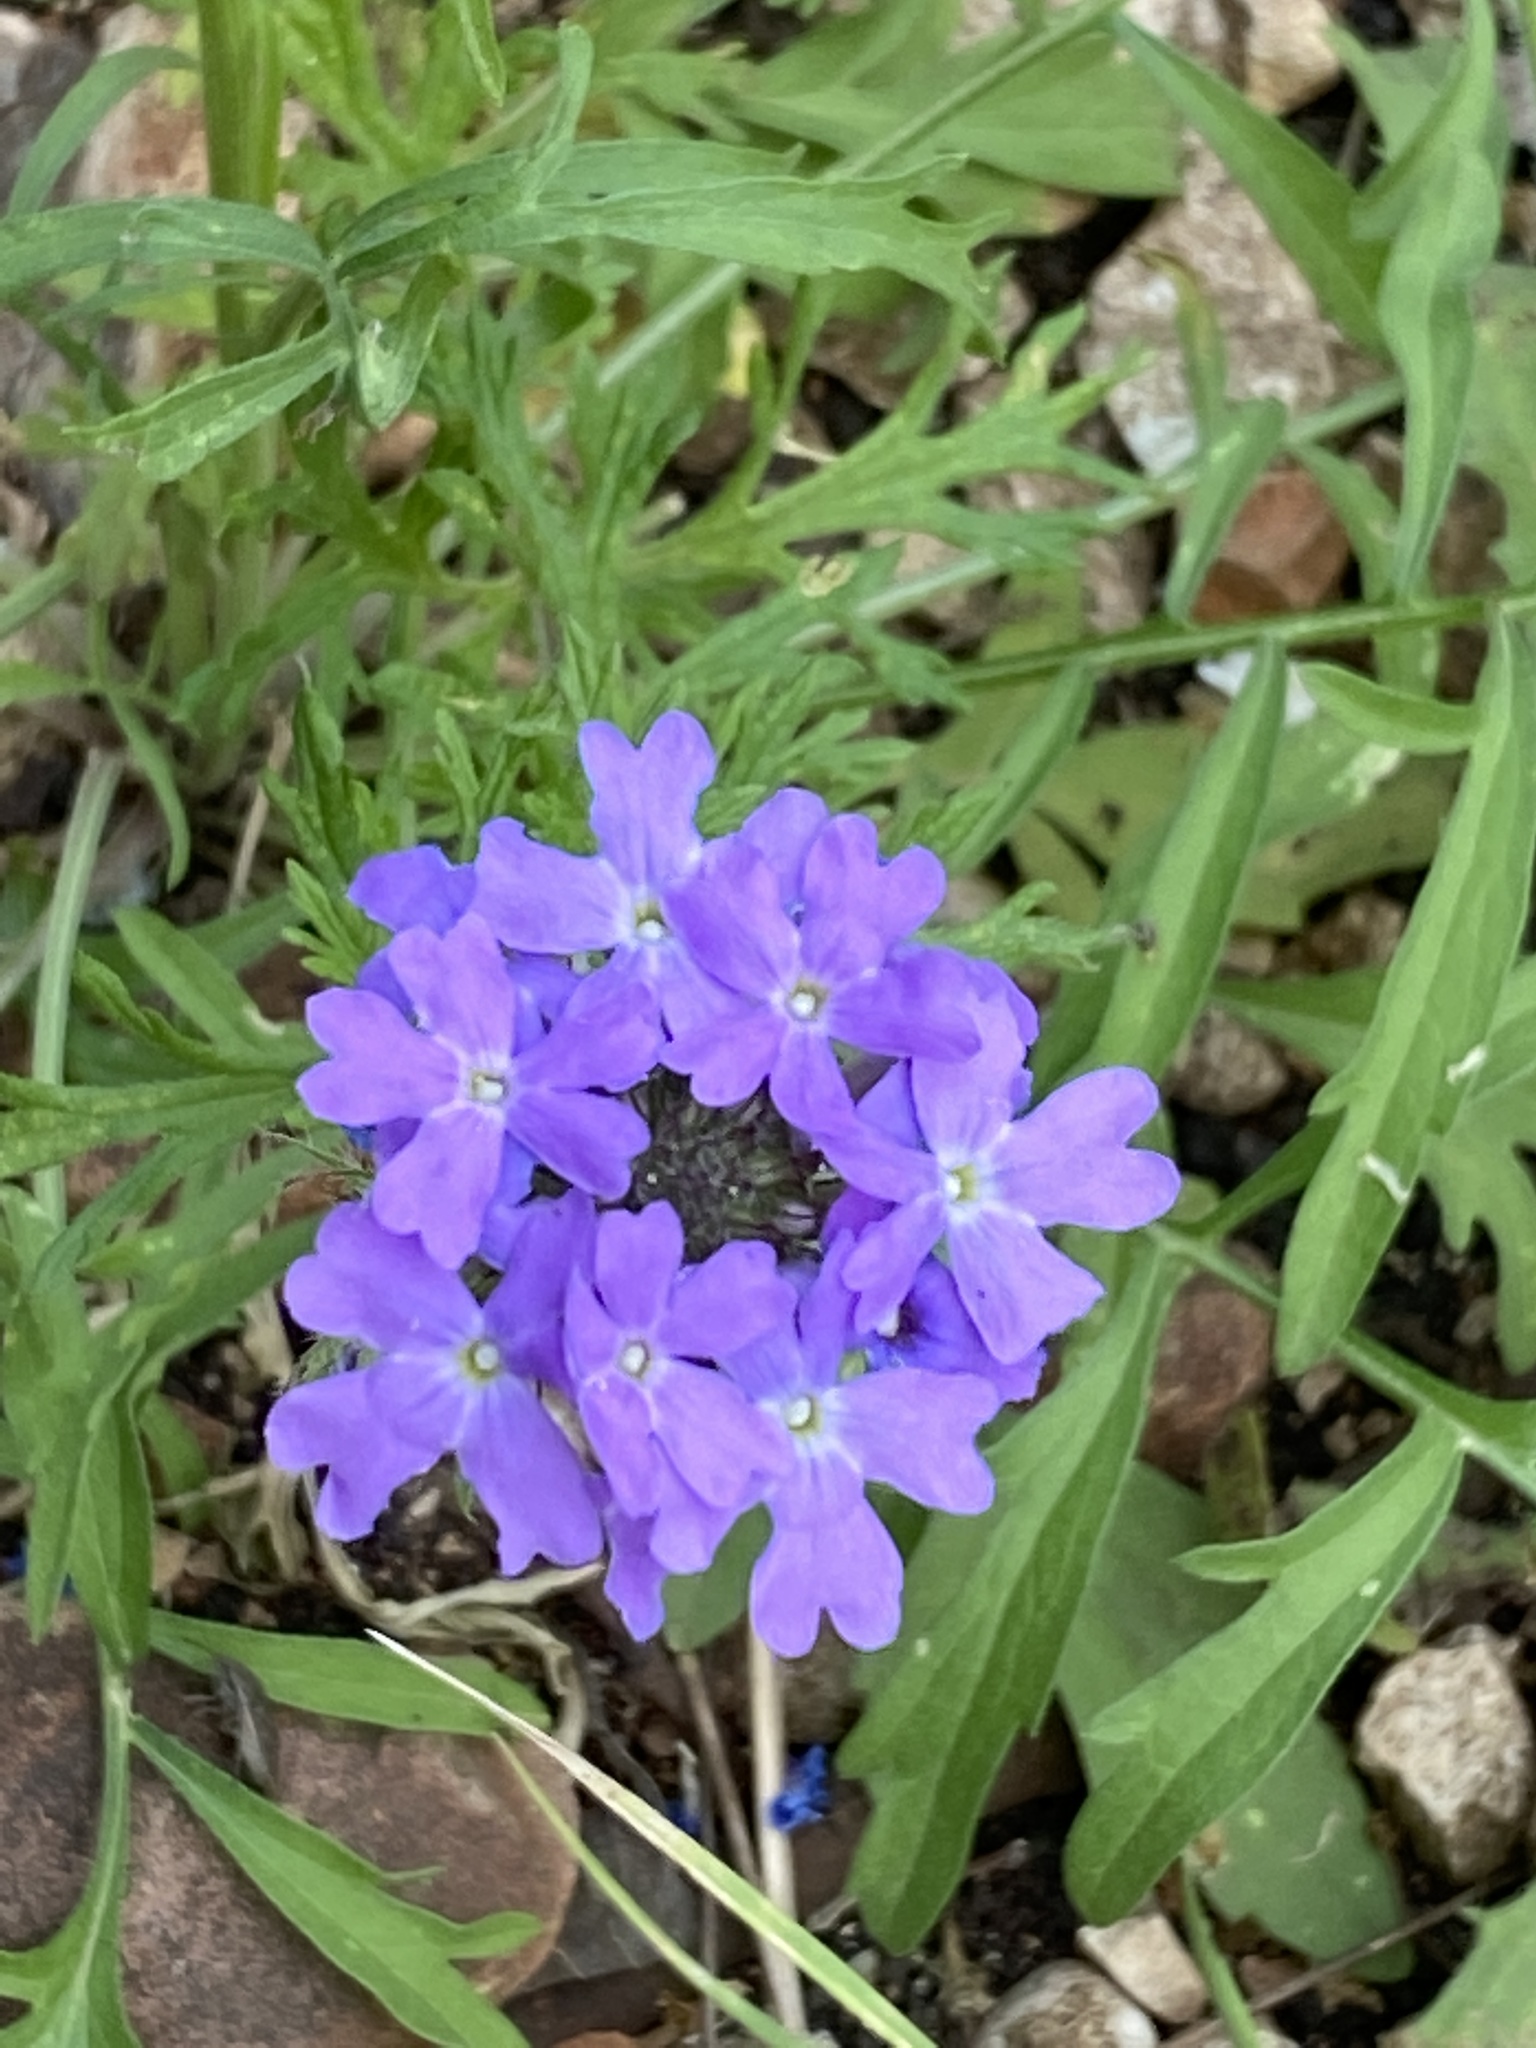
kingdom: Plantae
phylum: Tracheophyta
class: Magnoliopsida
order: Lamiales
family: Verbenaceae
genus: Verbena
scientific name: Verbena bipinnatifida
